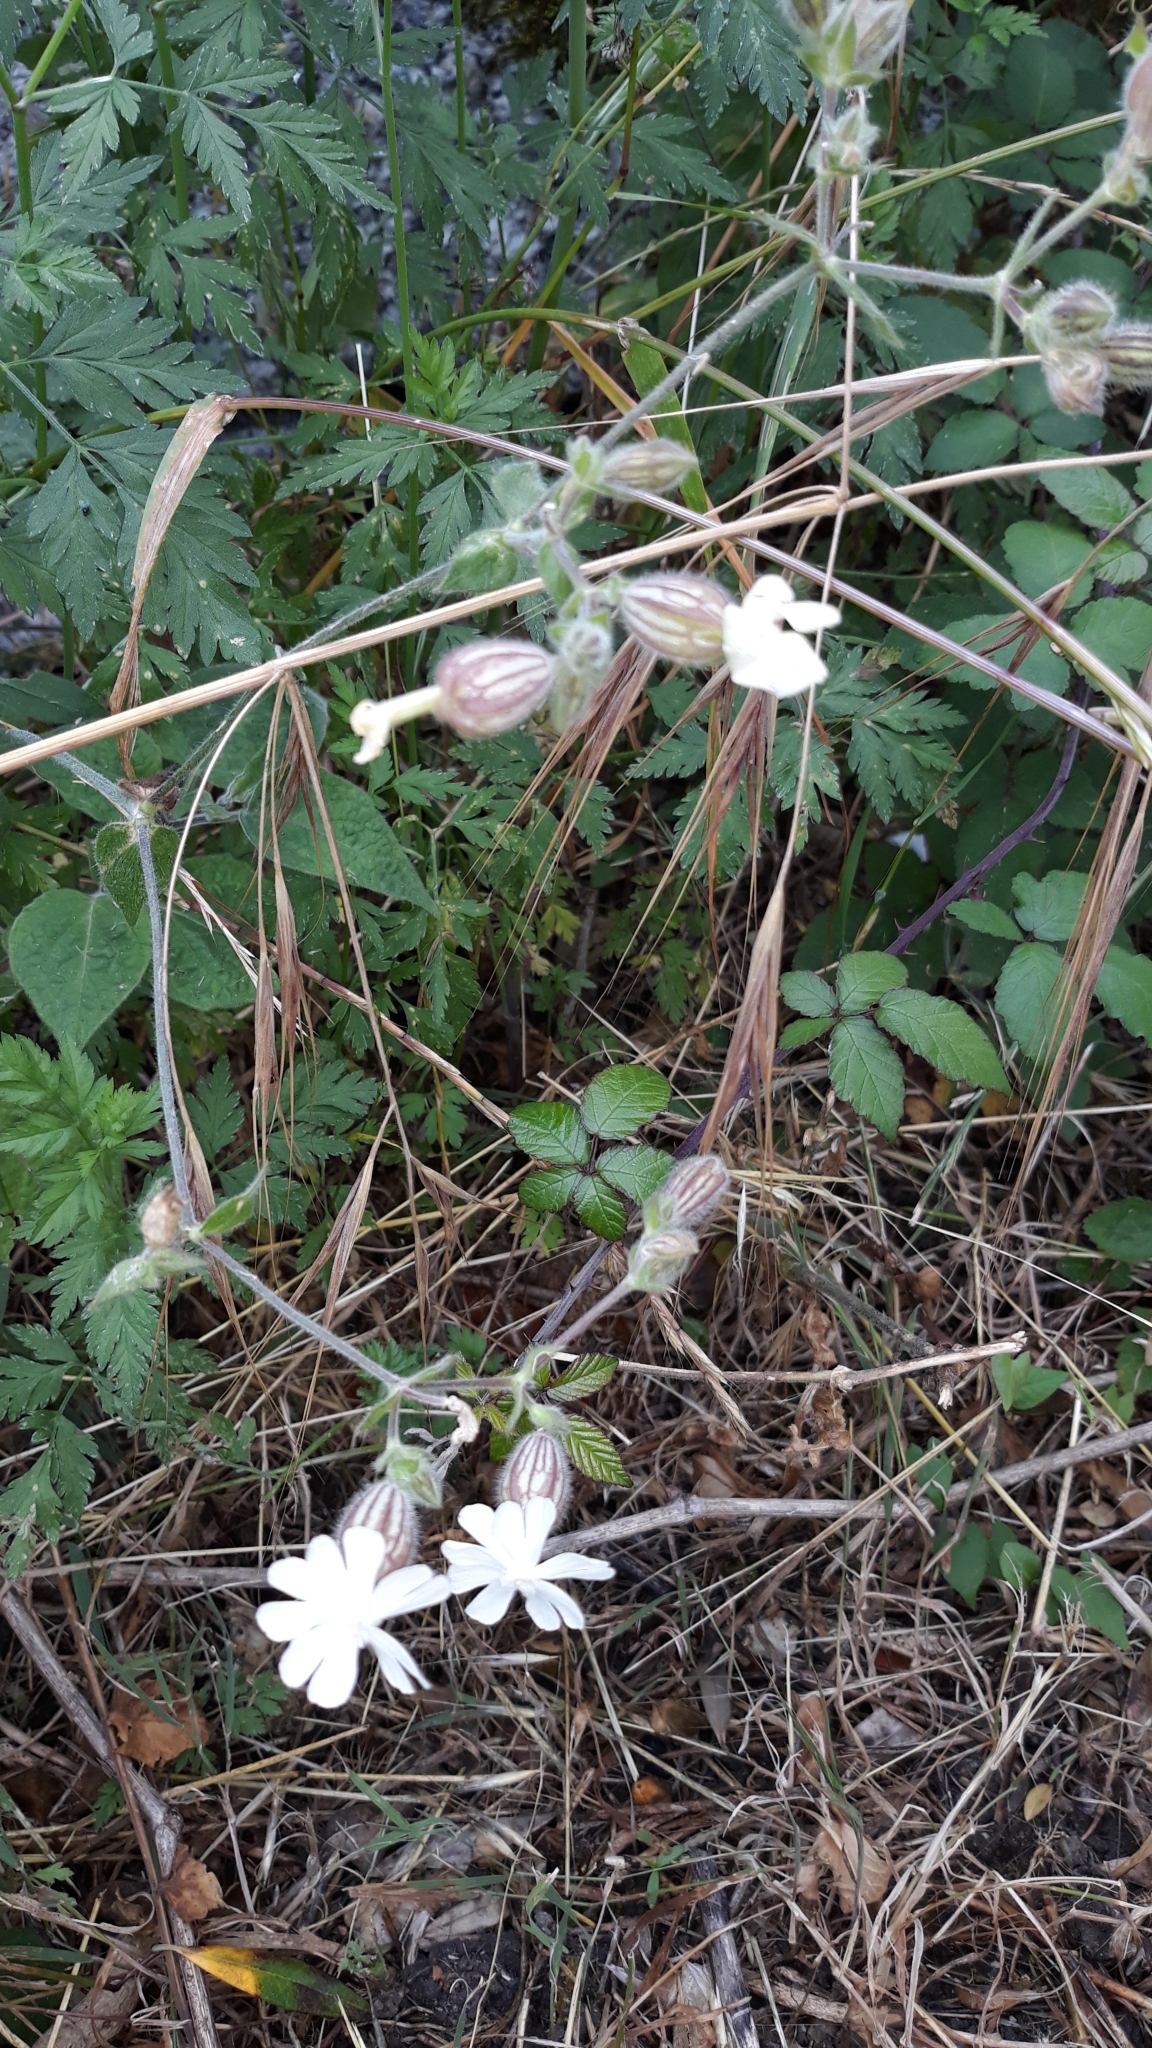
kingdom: Plantae
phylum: Tracheophyta
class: Magnoliopsida
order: Caryophyllales
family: Caryophyllaceae
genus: Silene
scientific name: Silene latifolia
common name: White campion
